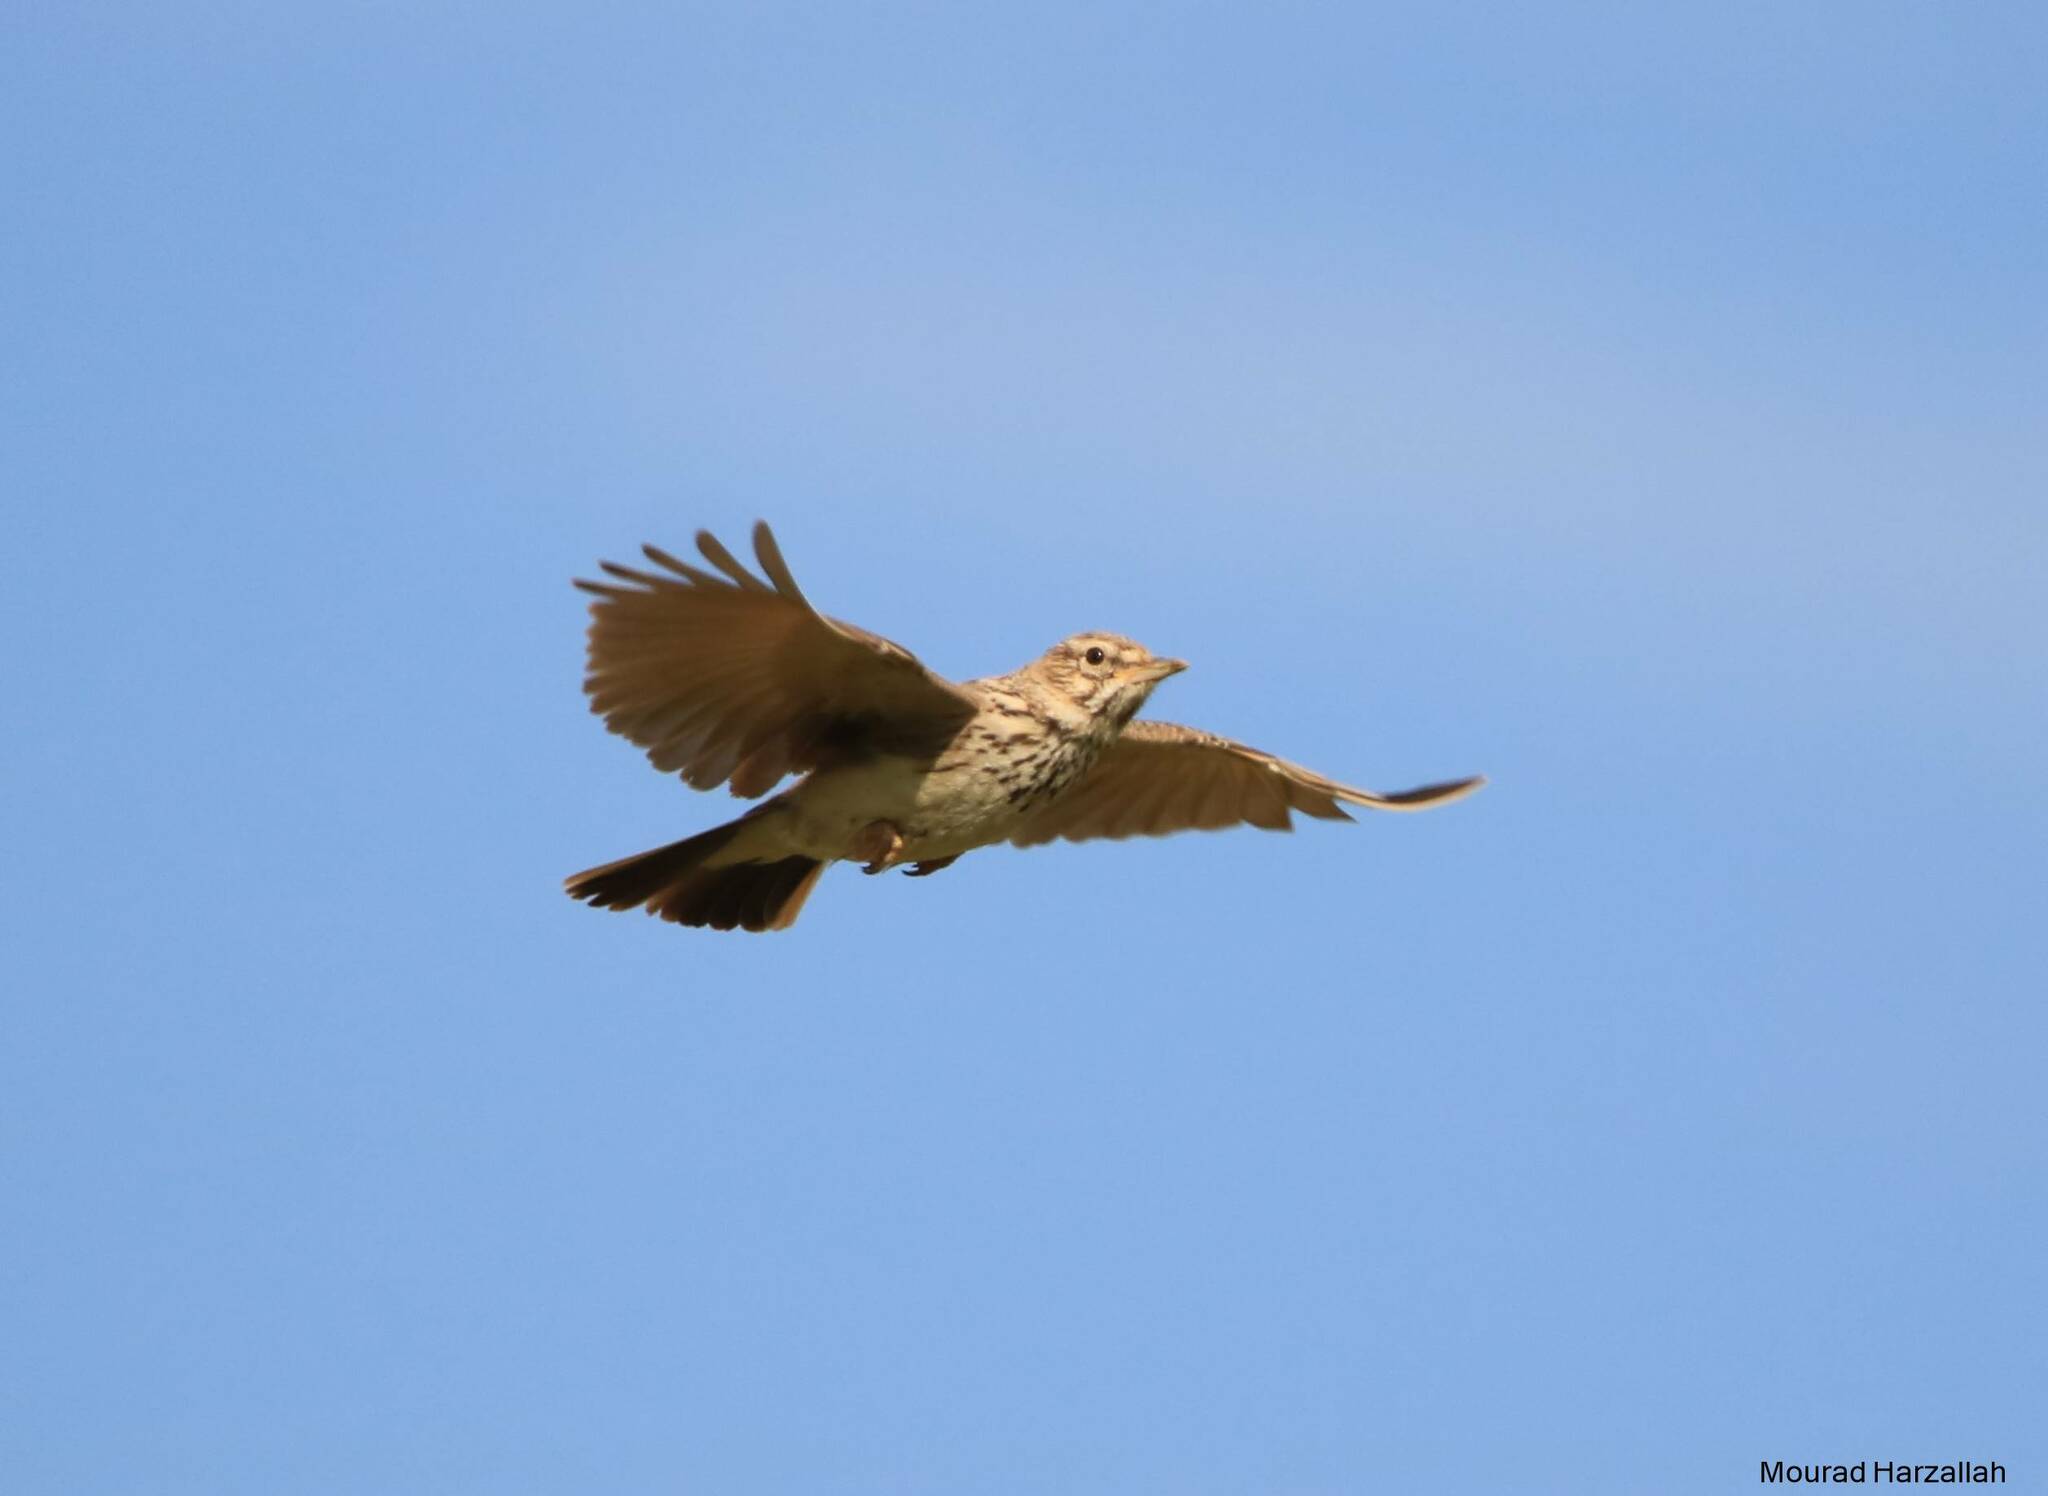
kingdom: Animalia
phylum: Chordata
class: Aves
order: Passeriformes
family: Alaudidae
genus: Galerida
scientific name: Galerida cristata
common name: Crested lark
